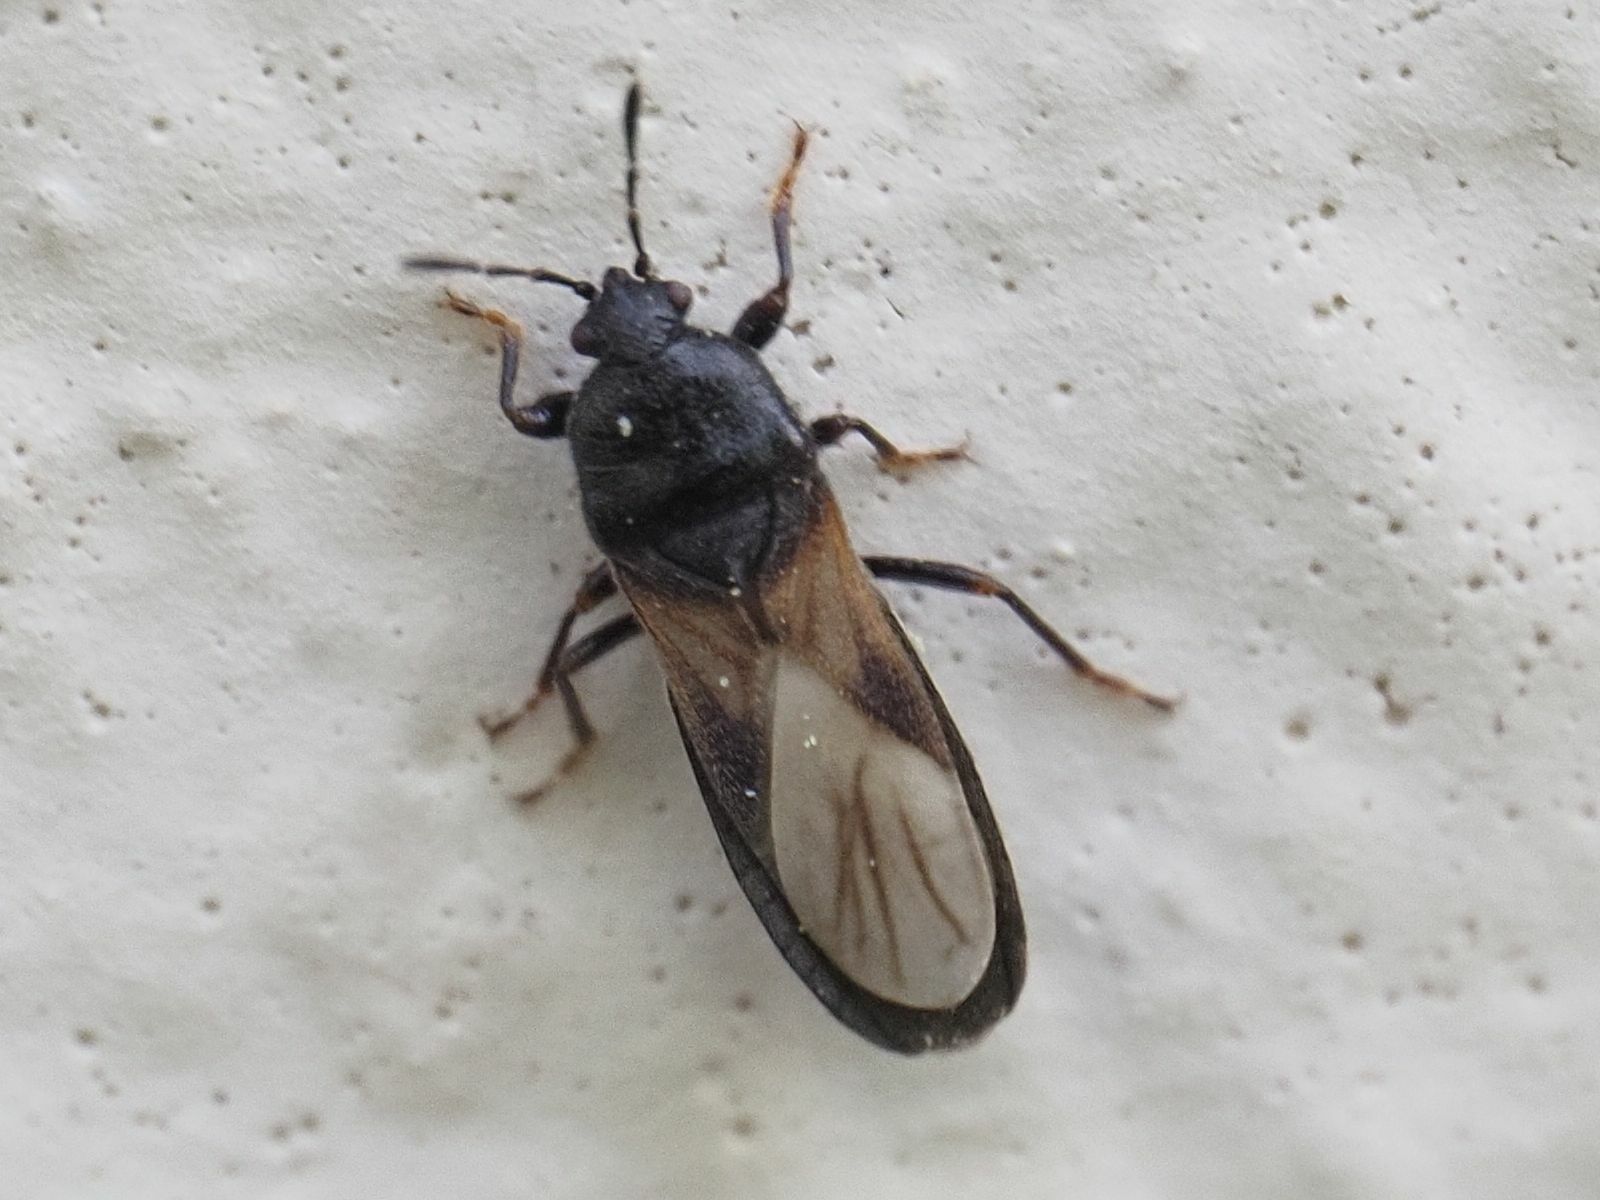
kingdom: Animalia
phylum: Arthropoda
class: Insecta
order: Hemiptera
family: Blissidae
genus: Dimorphopterus
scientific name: Dimorphopterus spinolae
